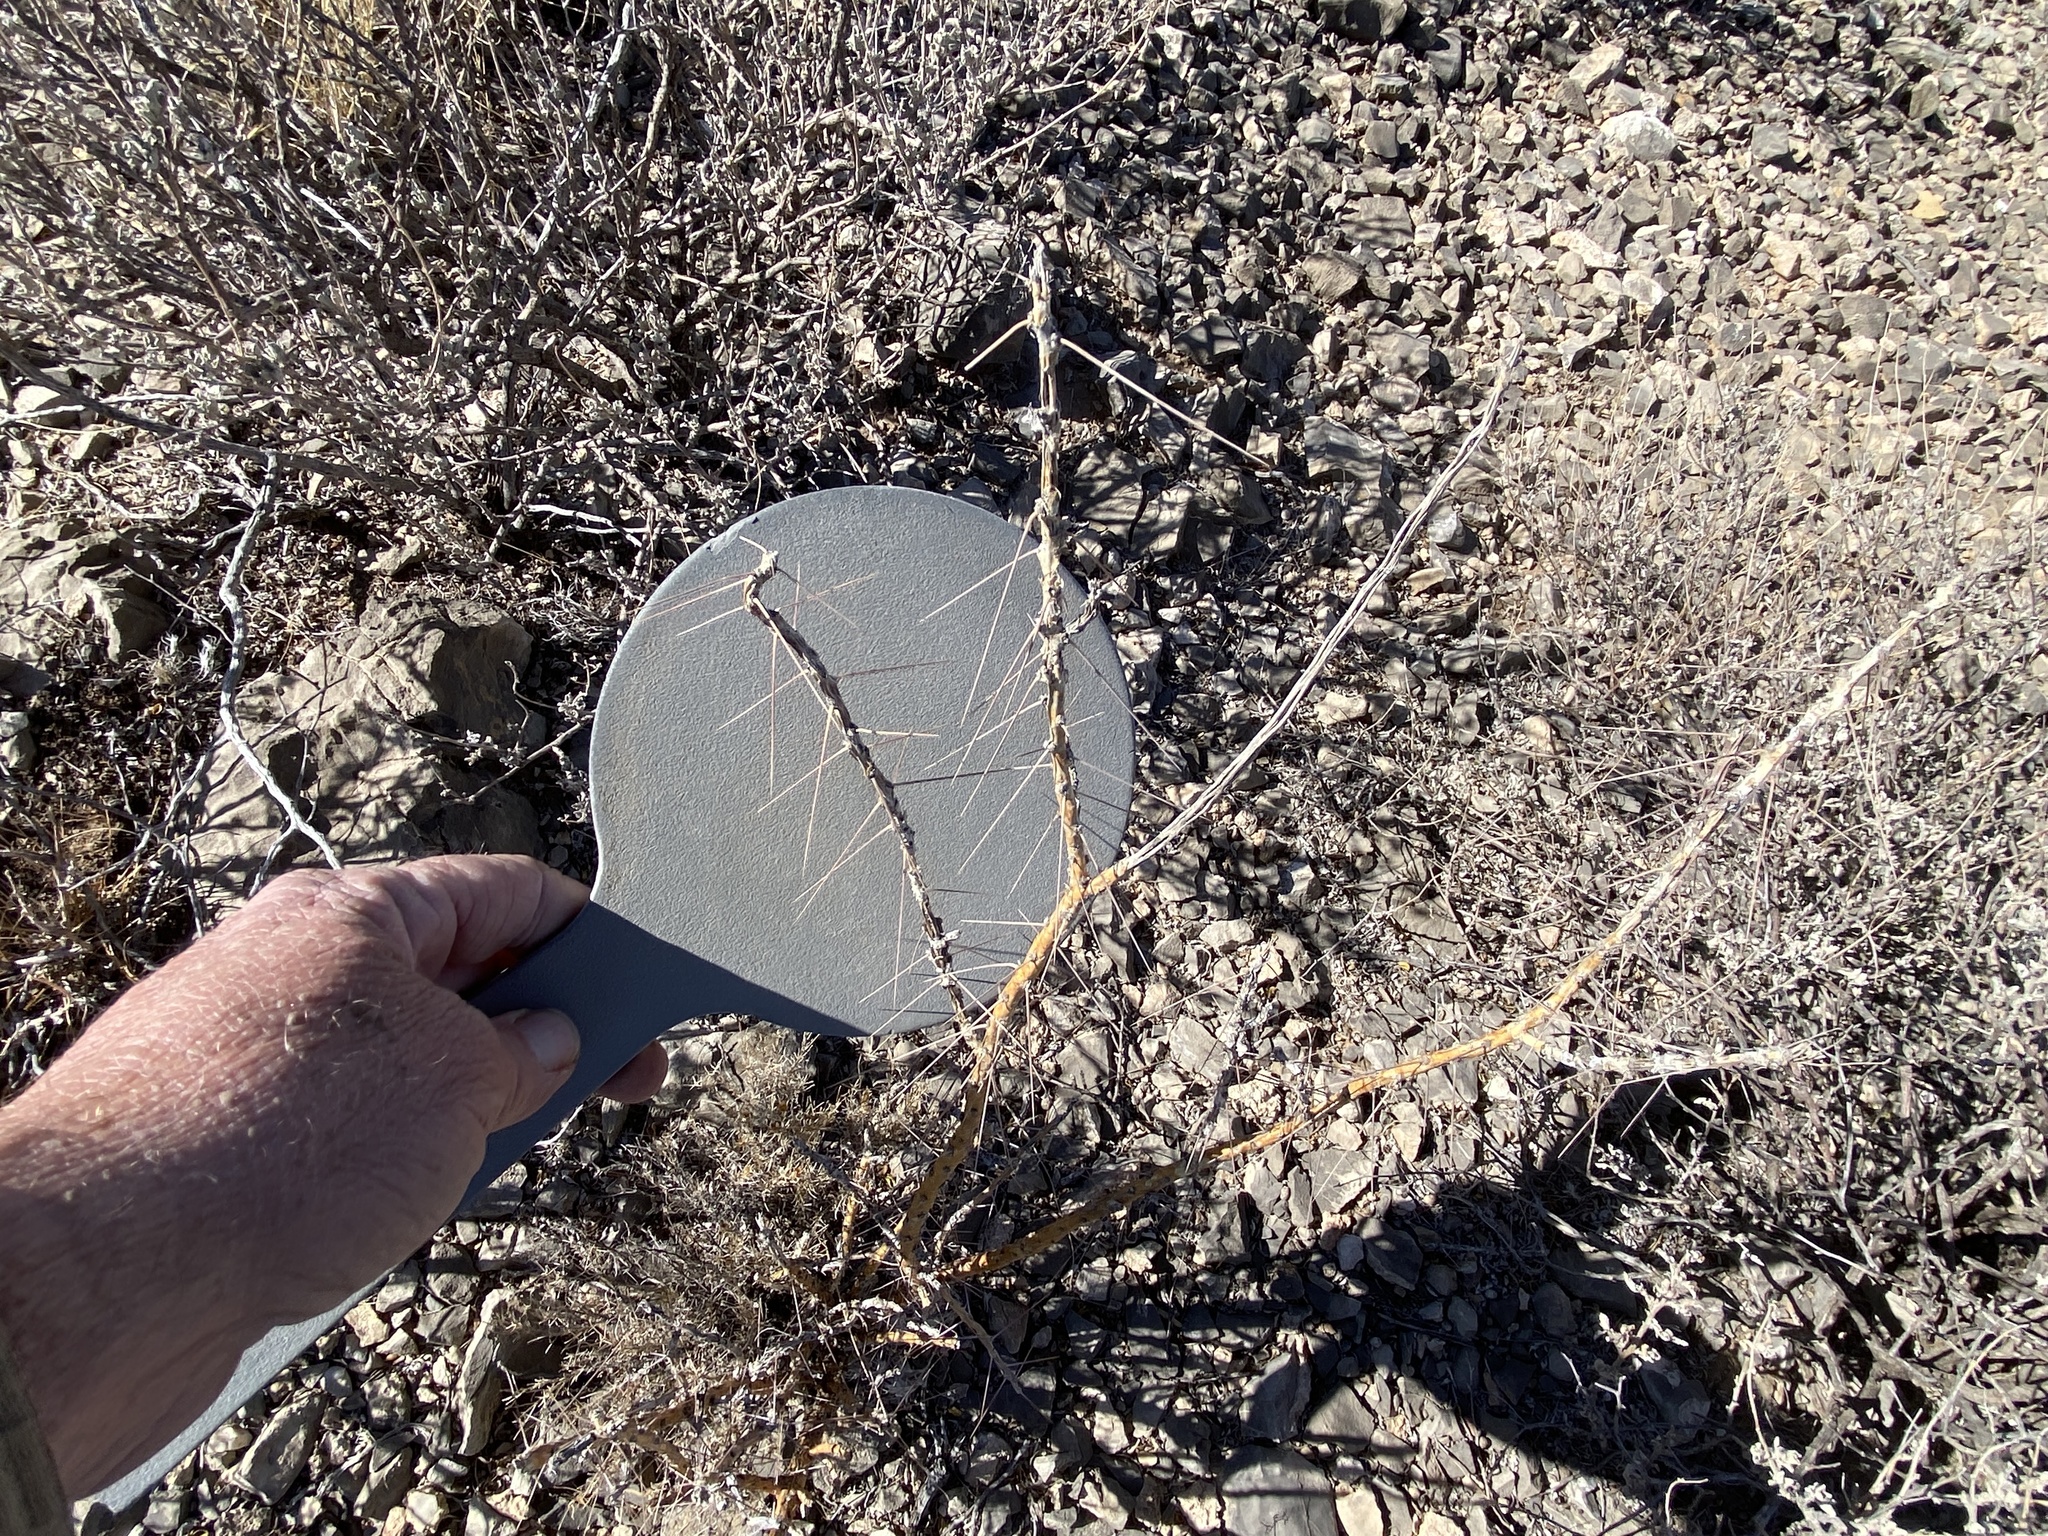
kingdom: Plantae
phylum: Tracheophyta
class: Magnoliopsida
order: Caryophyllales
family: Cactaceae
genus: Cylindropuntia
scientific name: Cylindropuntia leptocaulis
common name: Christmas cactus
